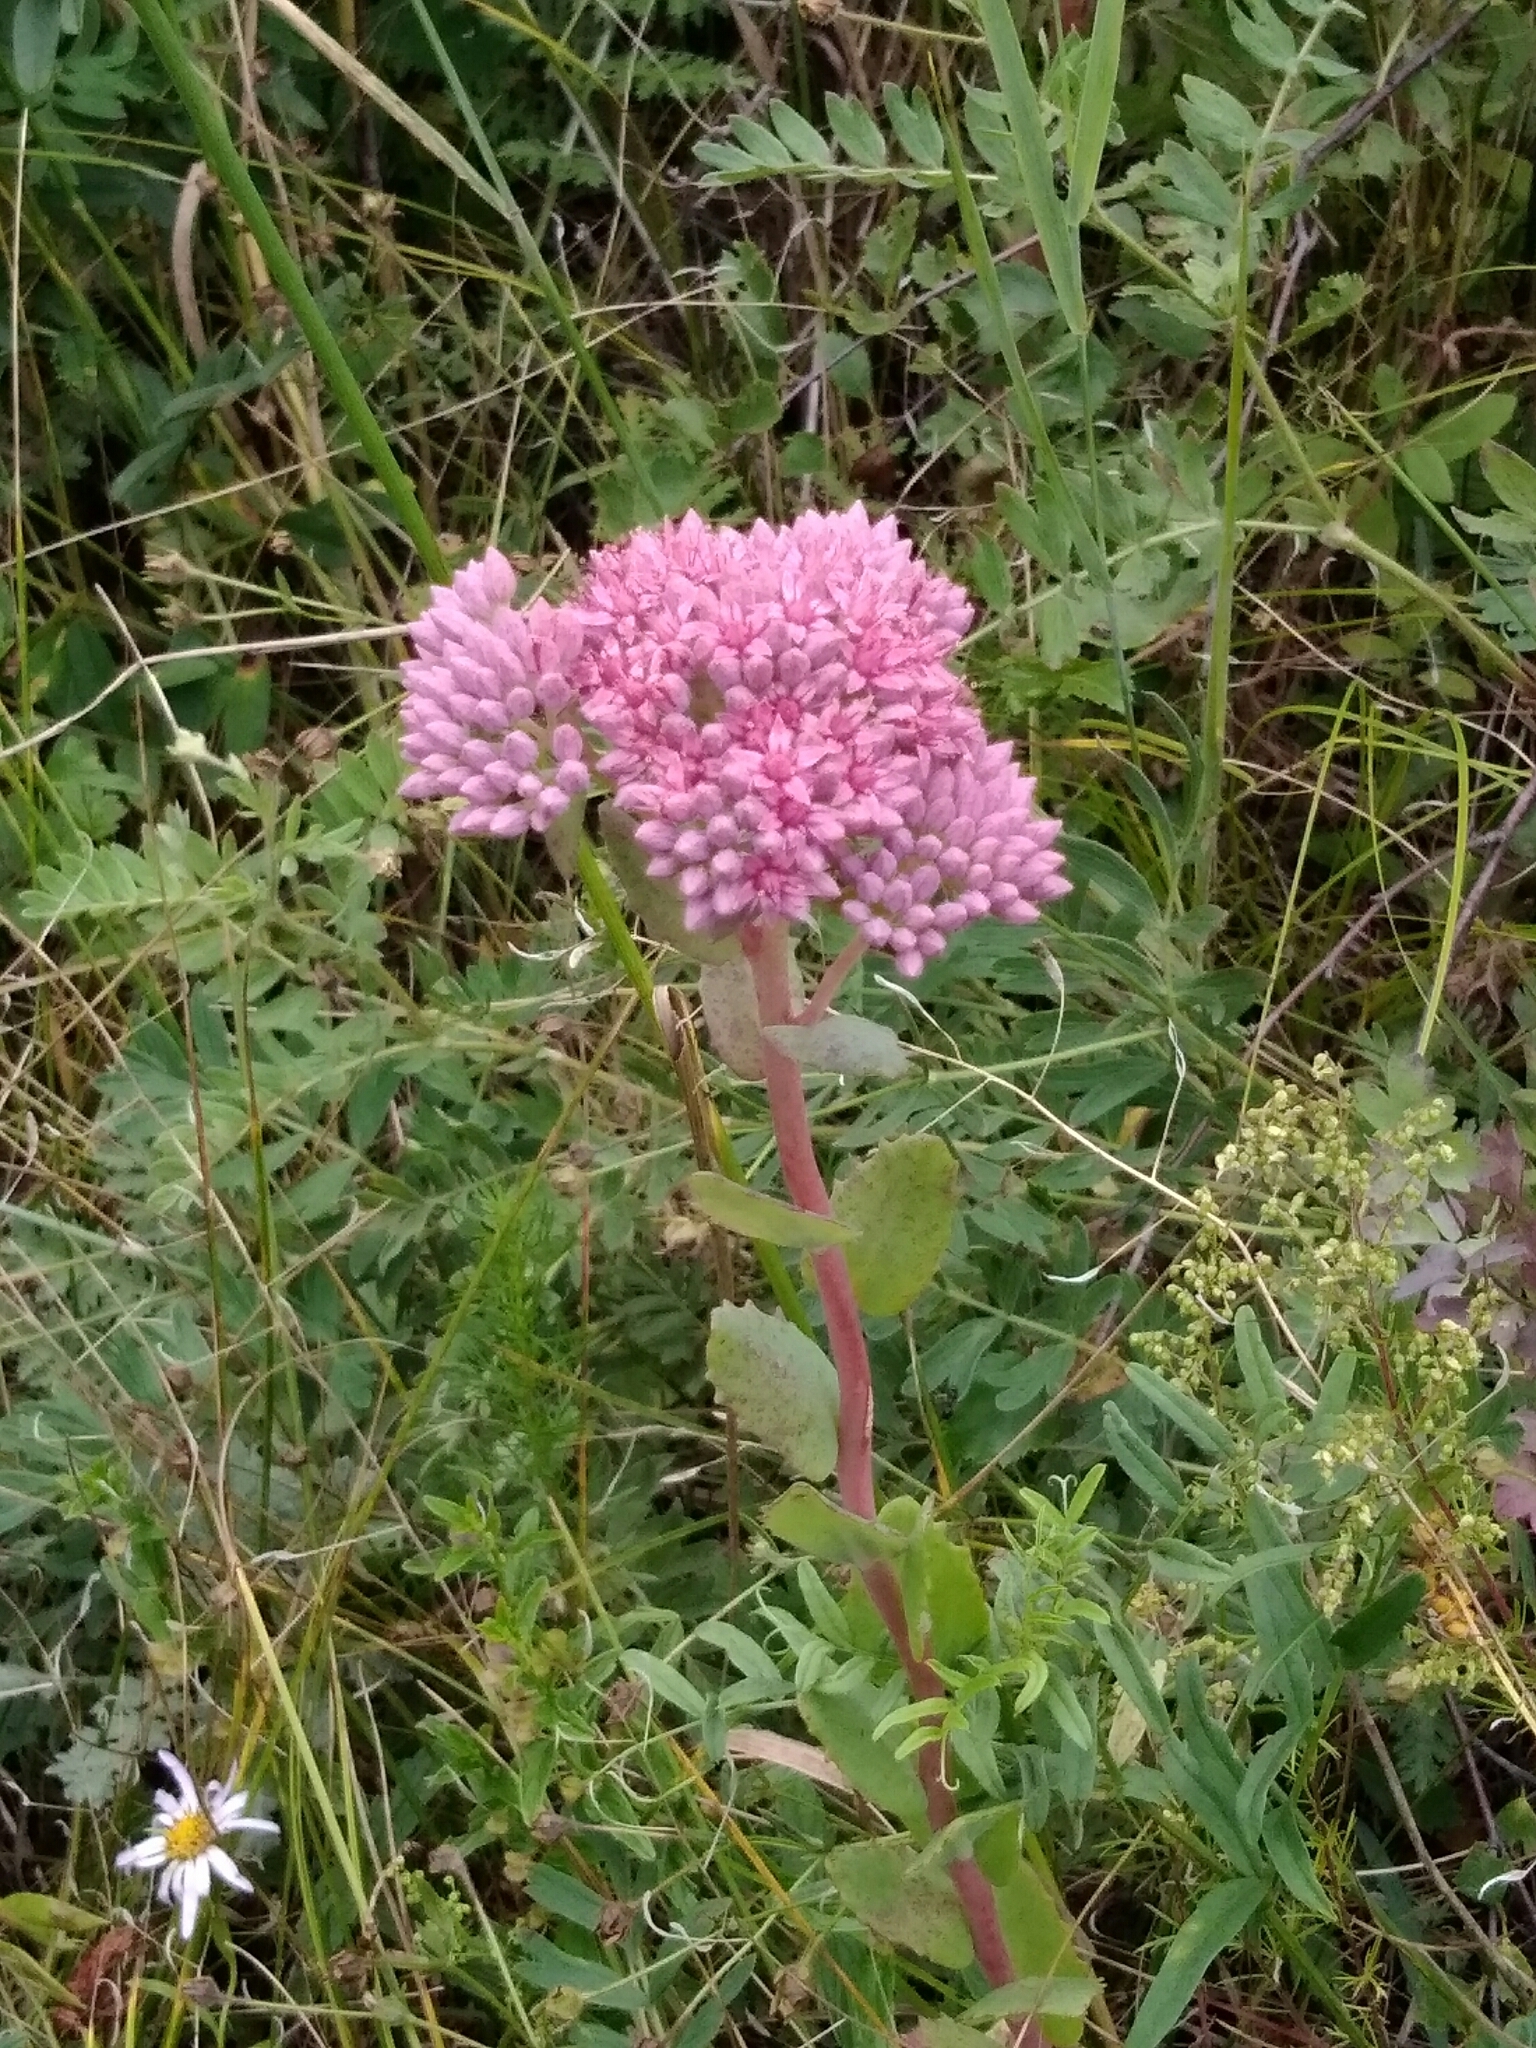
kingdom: Plantae
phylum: Tracheophyta
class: Magnoliopsida
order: Saxifragales
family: Crassulaceae
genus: Hylotelephium
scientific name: Hylotelephium telephium
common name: Live-forever
